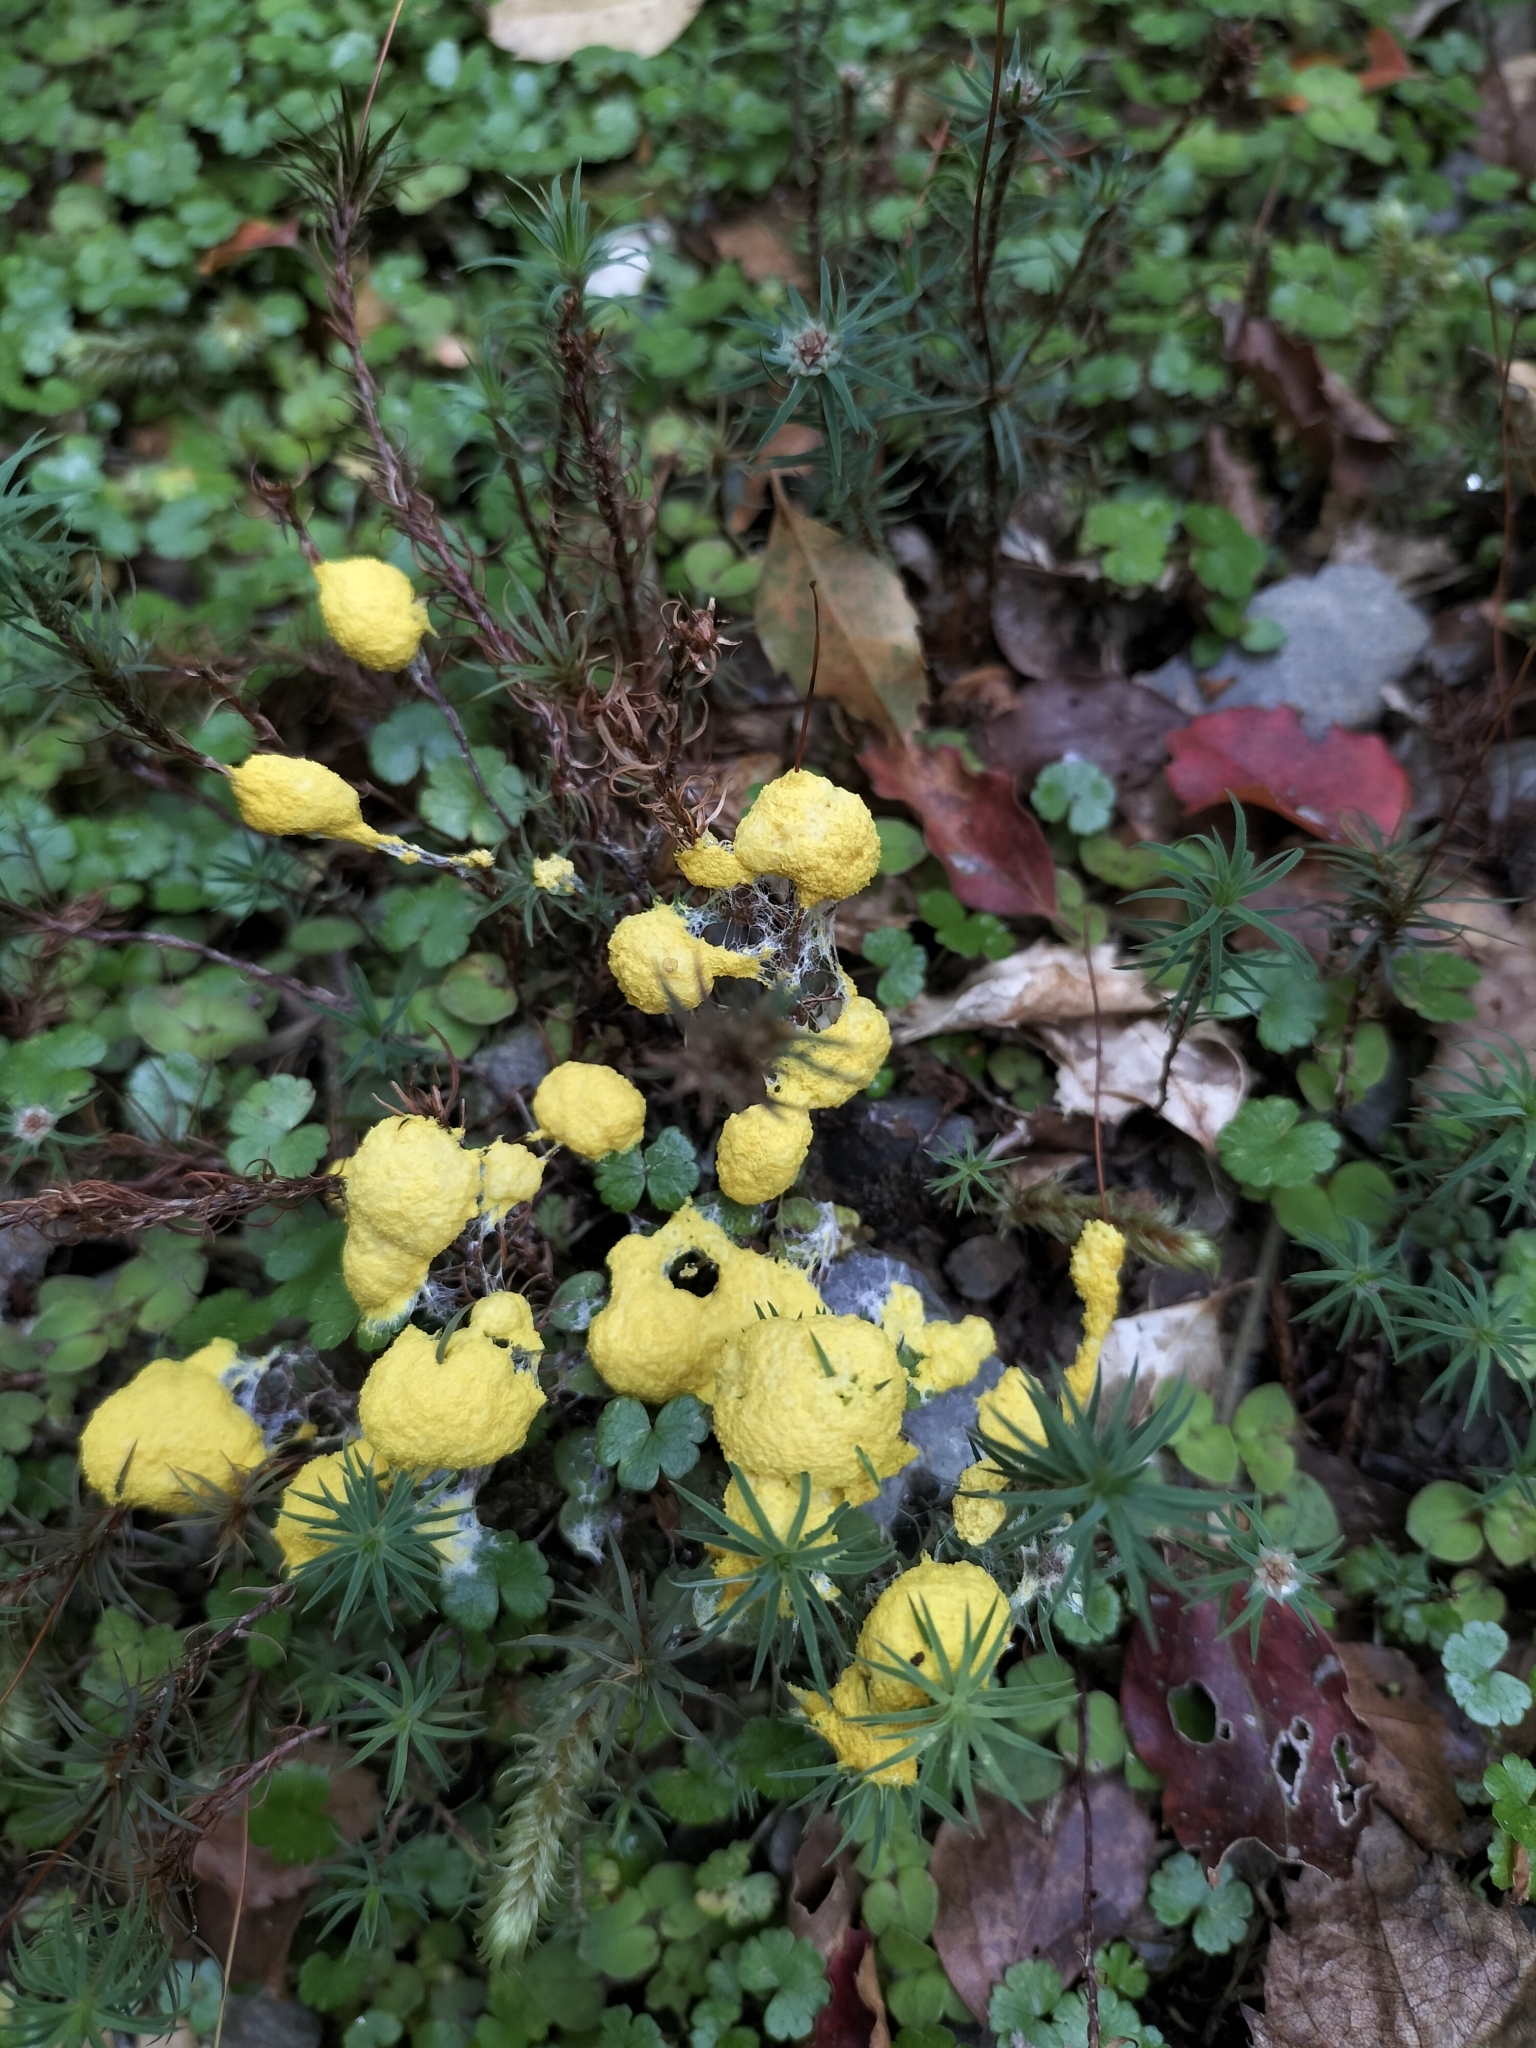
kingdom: Protozoa
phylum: Mycetozoa
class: Myxomycetes
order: Physarales
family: Physaraceae
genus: Fuligo
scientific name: Fuligo septica
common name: Dog vomit slime mold
